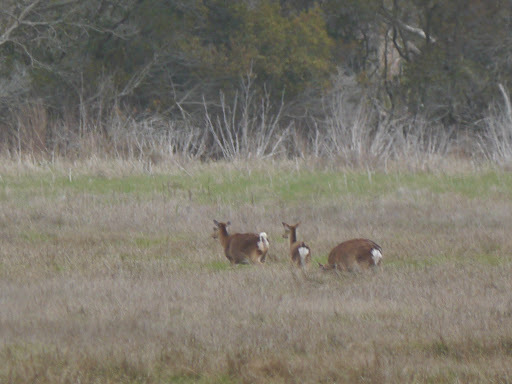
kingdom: Animalia
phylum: Chordata
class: Mammalia
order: Artiodactyla
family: Cervidae
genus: Cervus
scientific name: Cervus nippon
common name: Sika deer
